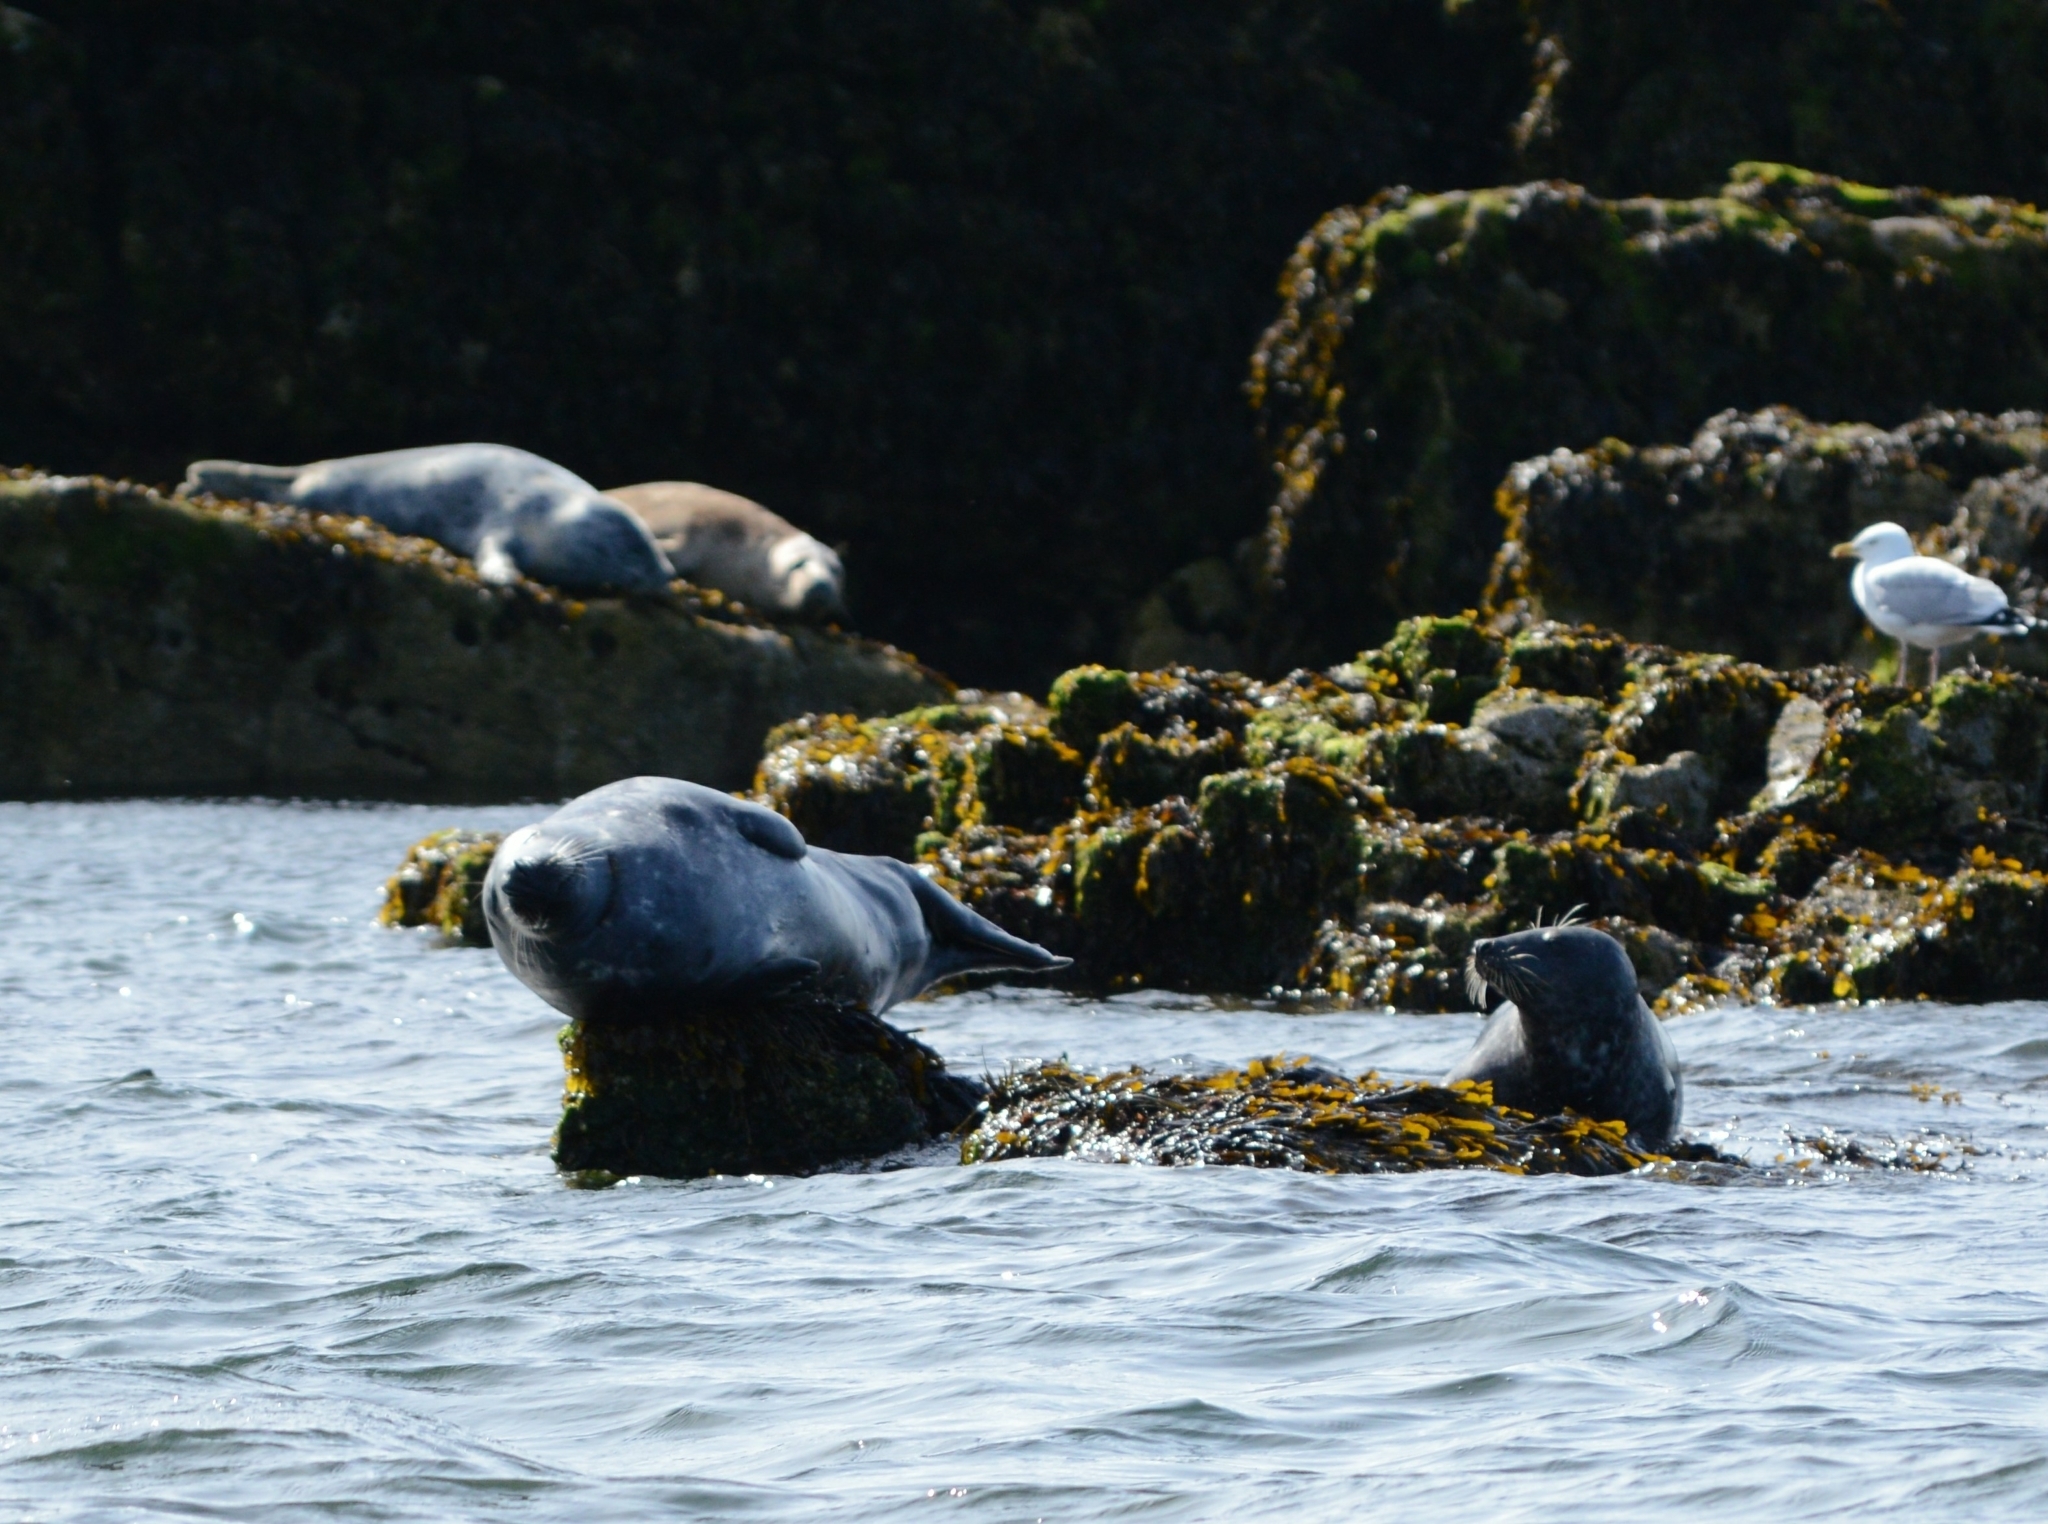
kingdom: Animalia
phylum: Chordata
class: Mammalia
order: Carnivora
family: Phocidae
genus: Halichoerus
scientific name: Halichoerus grypus
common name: Grey seal
